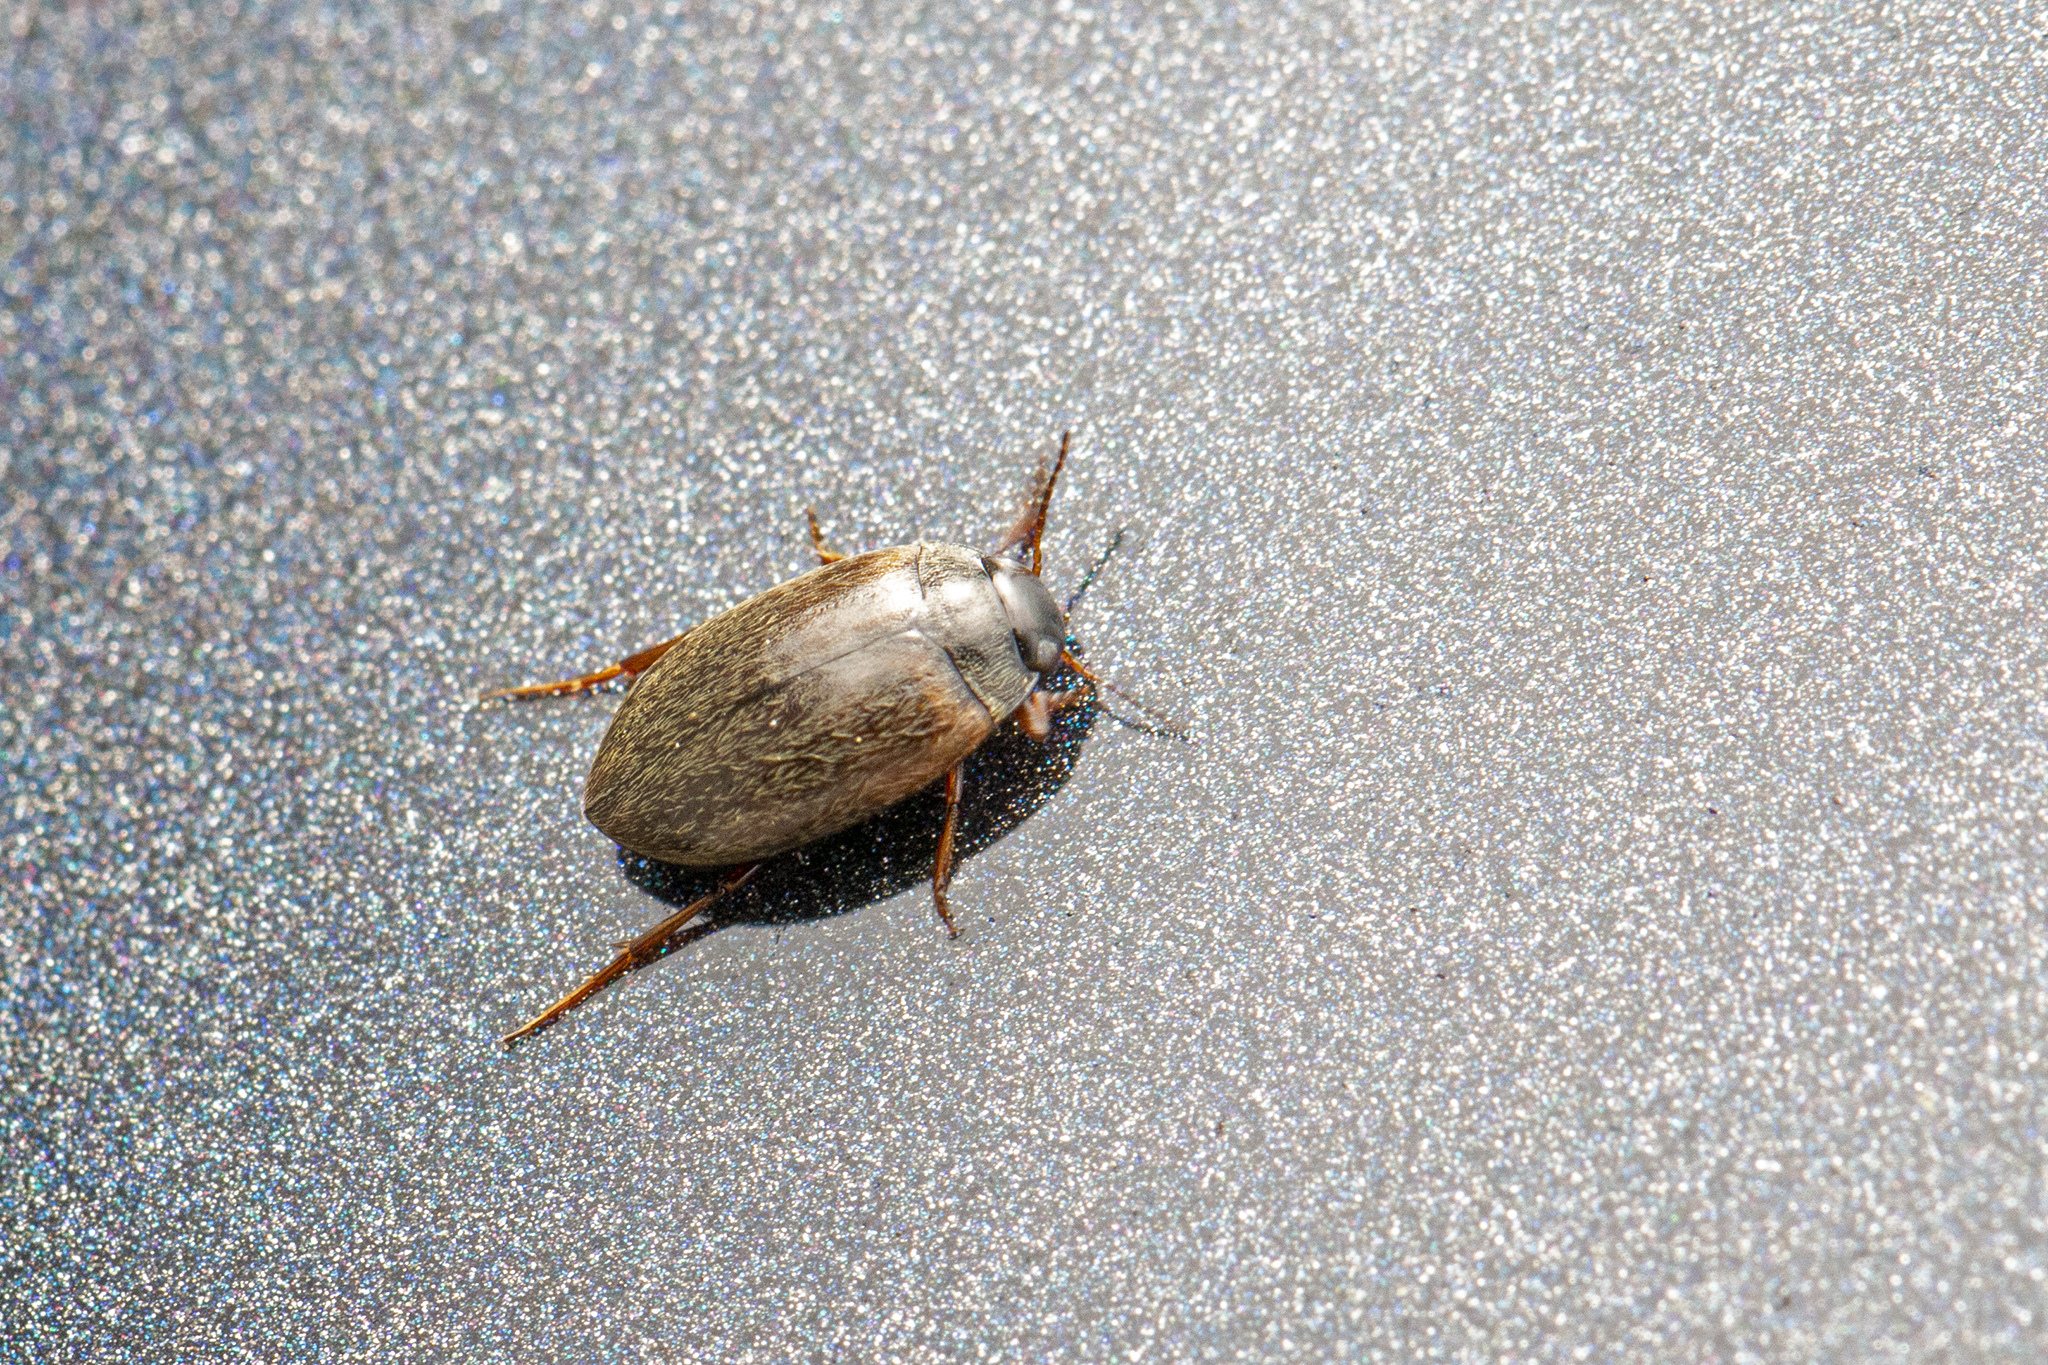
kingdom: Animalia
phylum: Arthropoda
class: Insecta
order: Coleoptera
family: Dytiscidae
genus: Hydroporus
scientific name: Hydroporus planus
